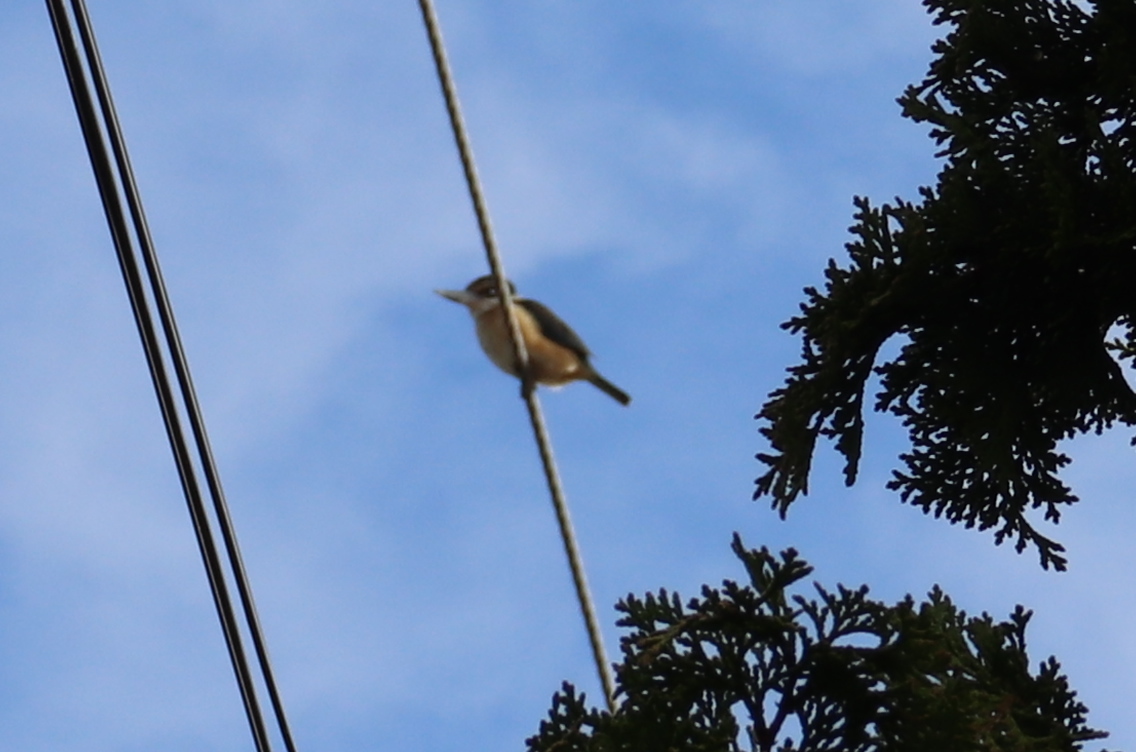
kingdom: Animalia
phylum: Chordata
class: Aves
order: Coraciiformes
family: Alcedinidae
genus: Todiramphus
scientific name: Todiramphus sanctus
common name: Sacred kingfisher
